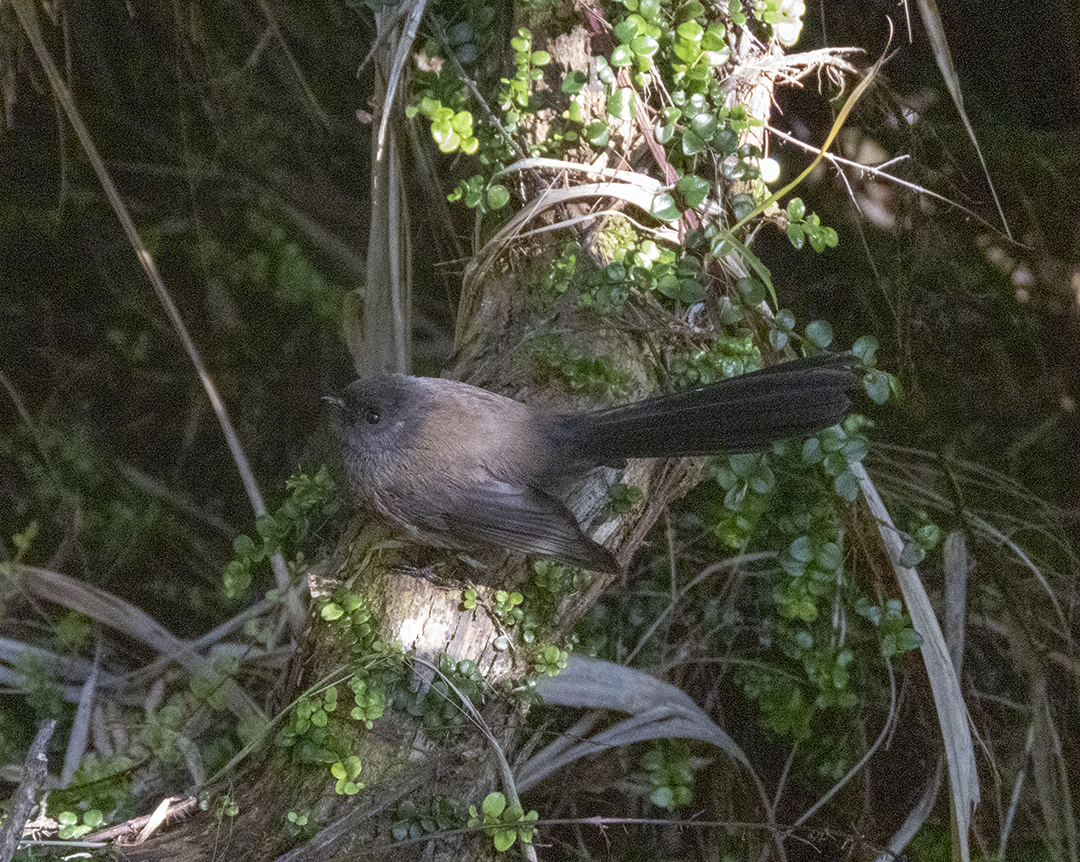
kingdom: Animalia
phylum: Chordata
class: Aves
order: Passeriformes
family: Rhipiduridae
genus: Rhipidura
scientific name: Rhipidura fuliginosa
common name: New zealand fantail
